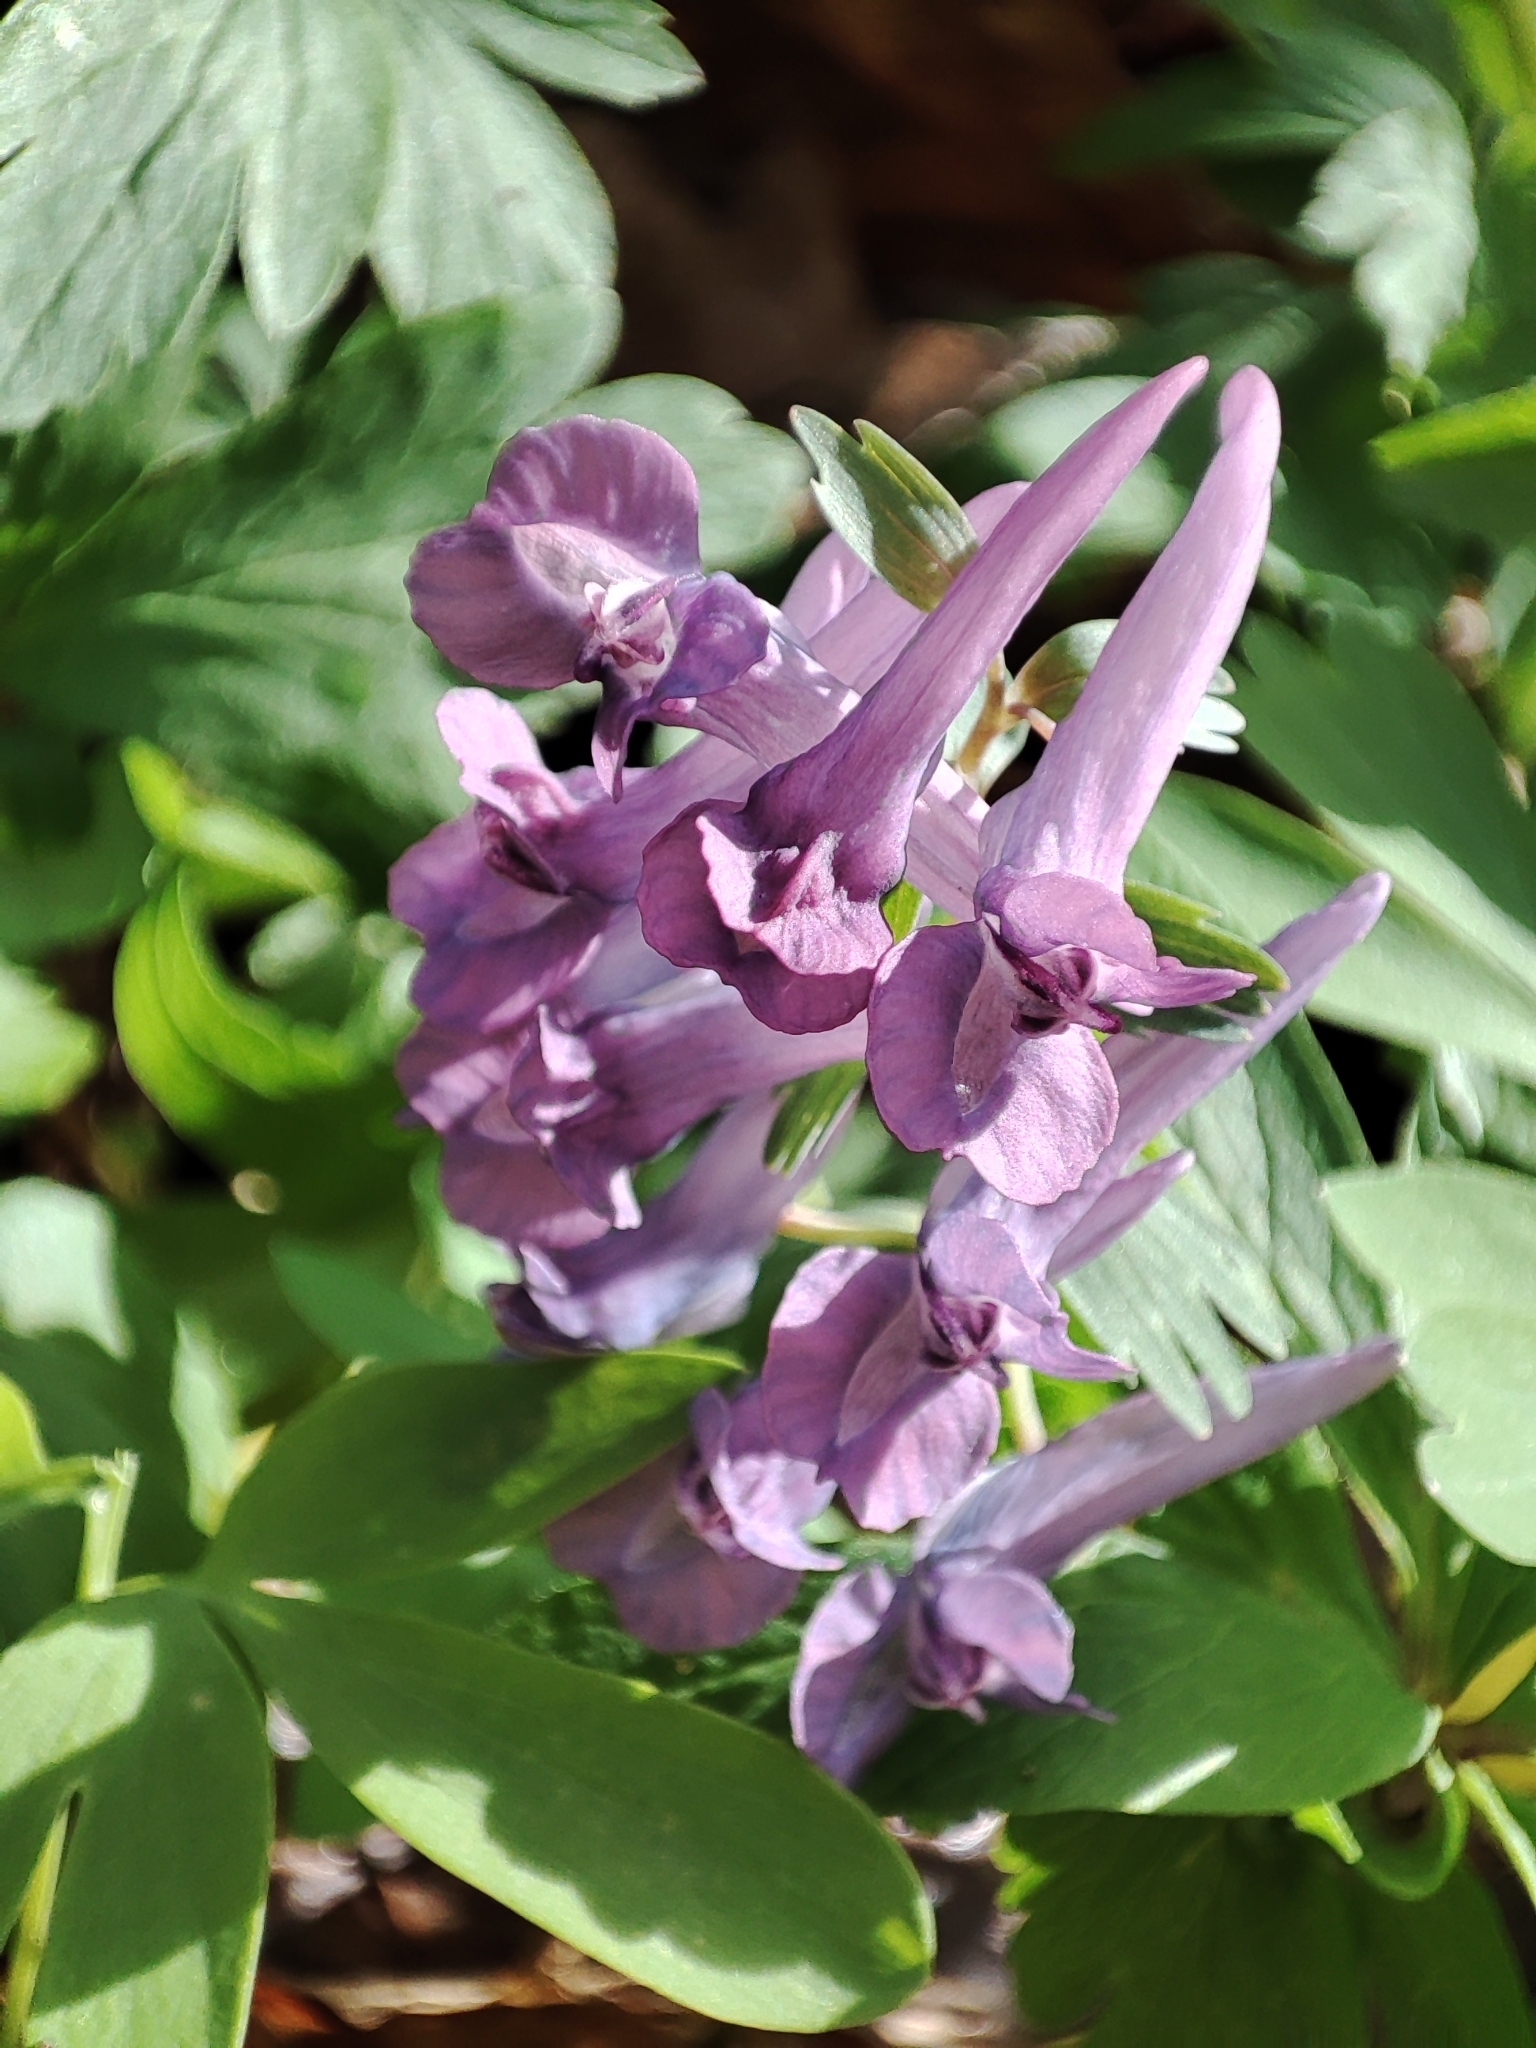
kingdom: Plantae
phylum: Tracheophyta
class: Magnoliopsida
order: Ranunculales
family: Papaveraceae
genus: Corydalis
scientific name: Corydalis solida
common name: Bird-in-a-bush
